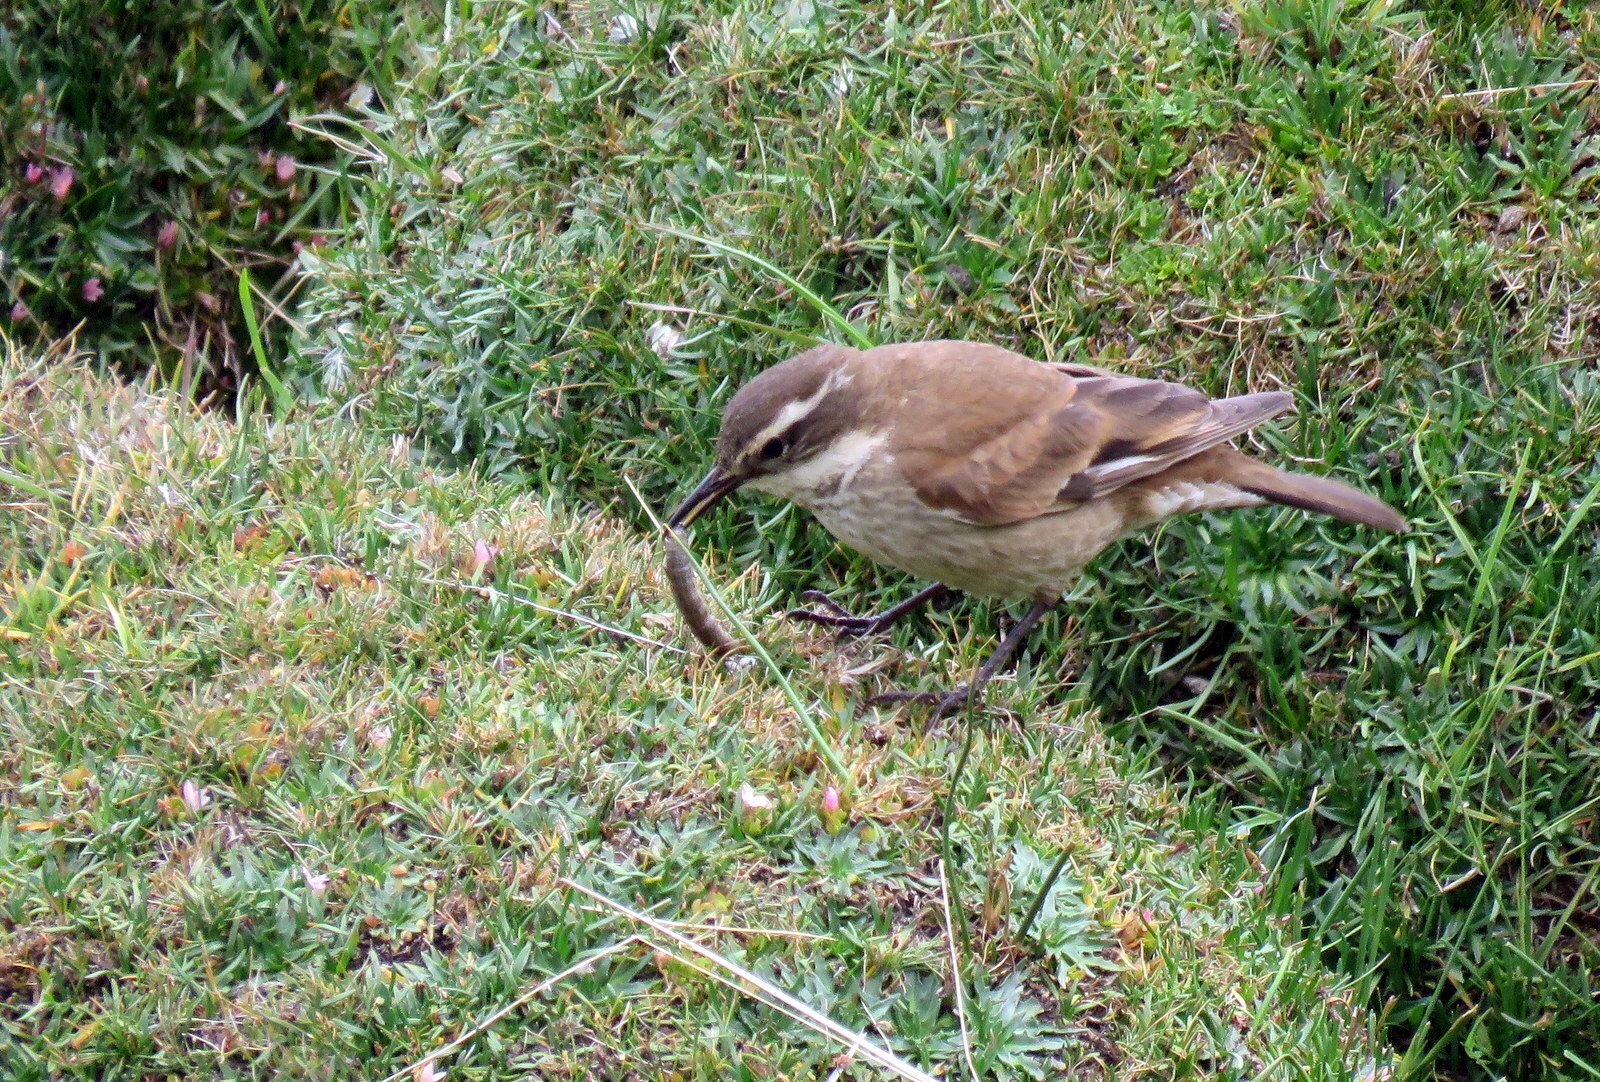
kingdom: Animalia
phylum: Chordata
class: Aves
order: Passeriformes
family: Furnariidae
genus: Cinclodes
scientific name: Cinclodes fuscus
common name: Buff-winged cinclodes
